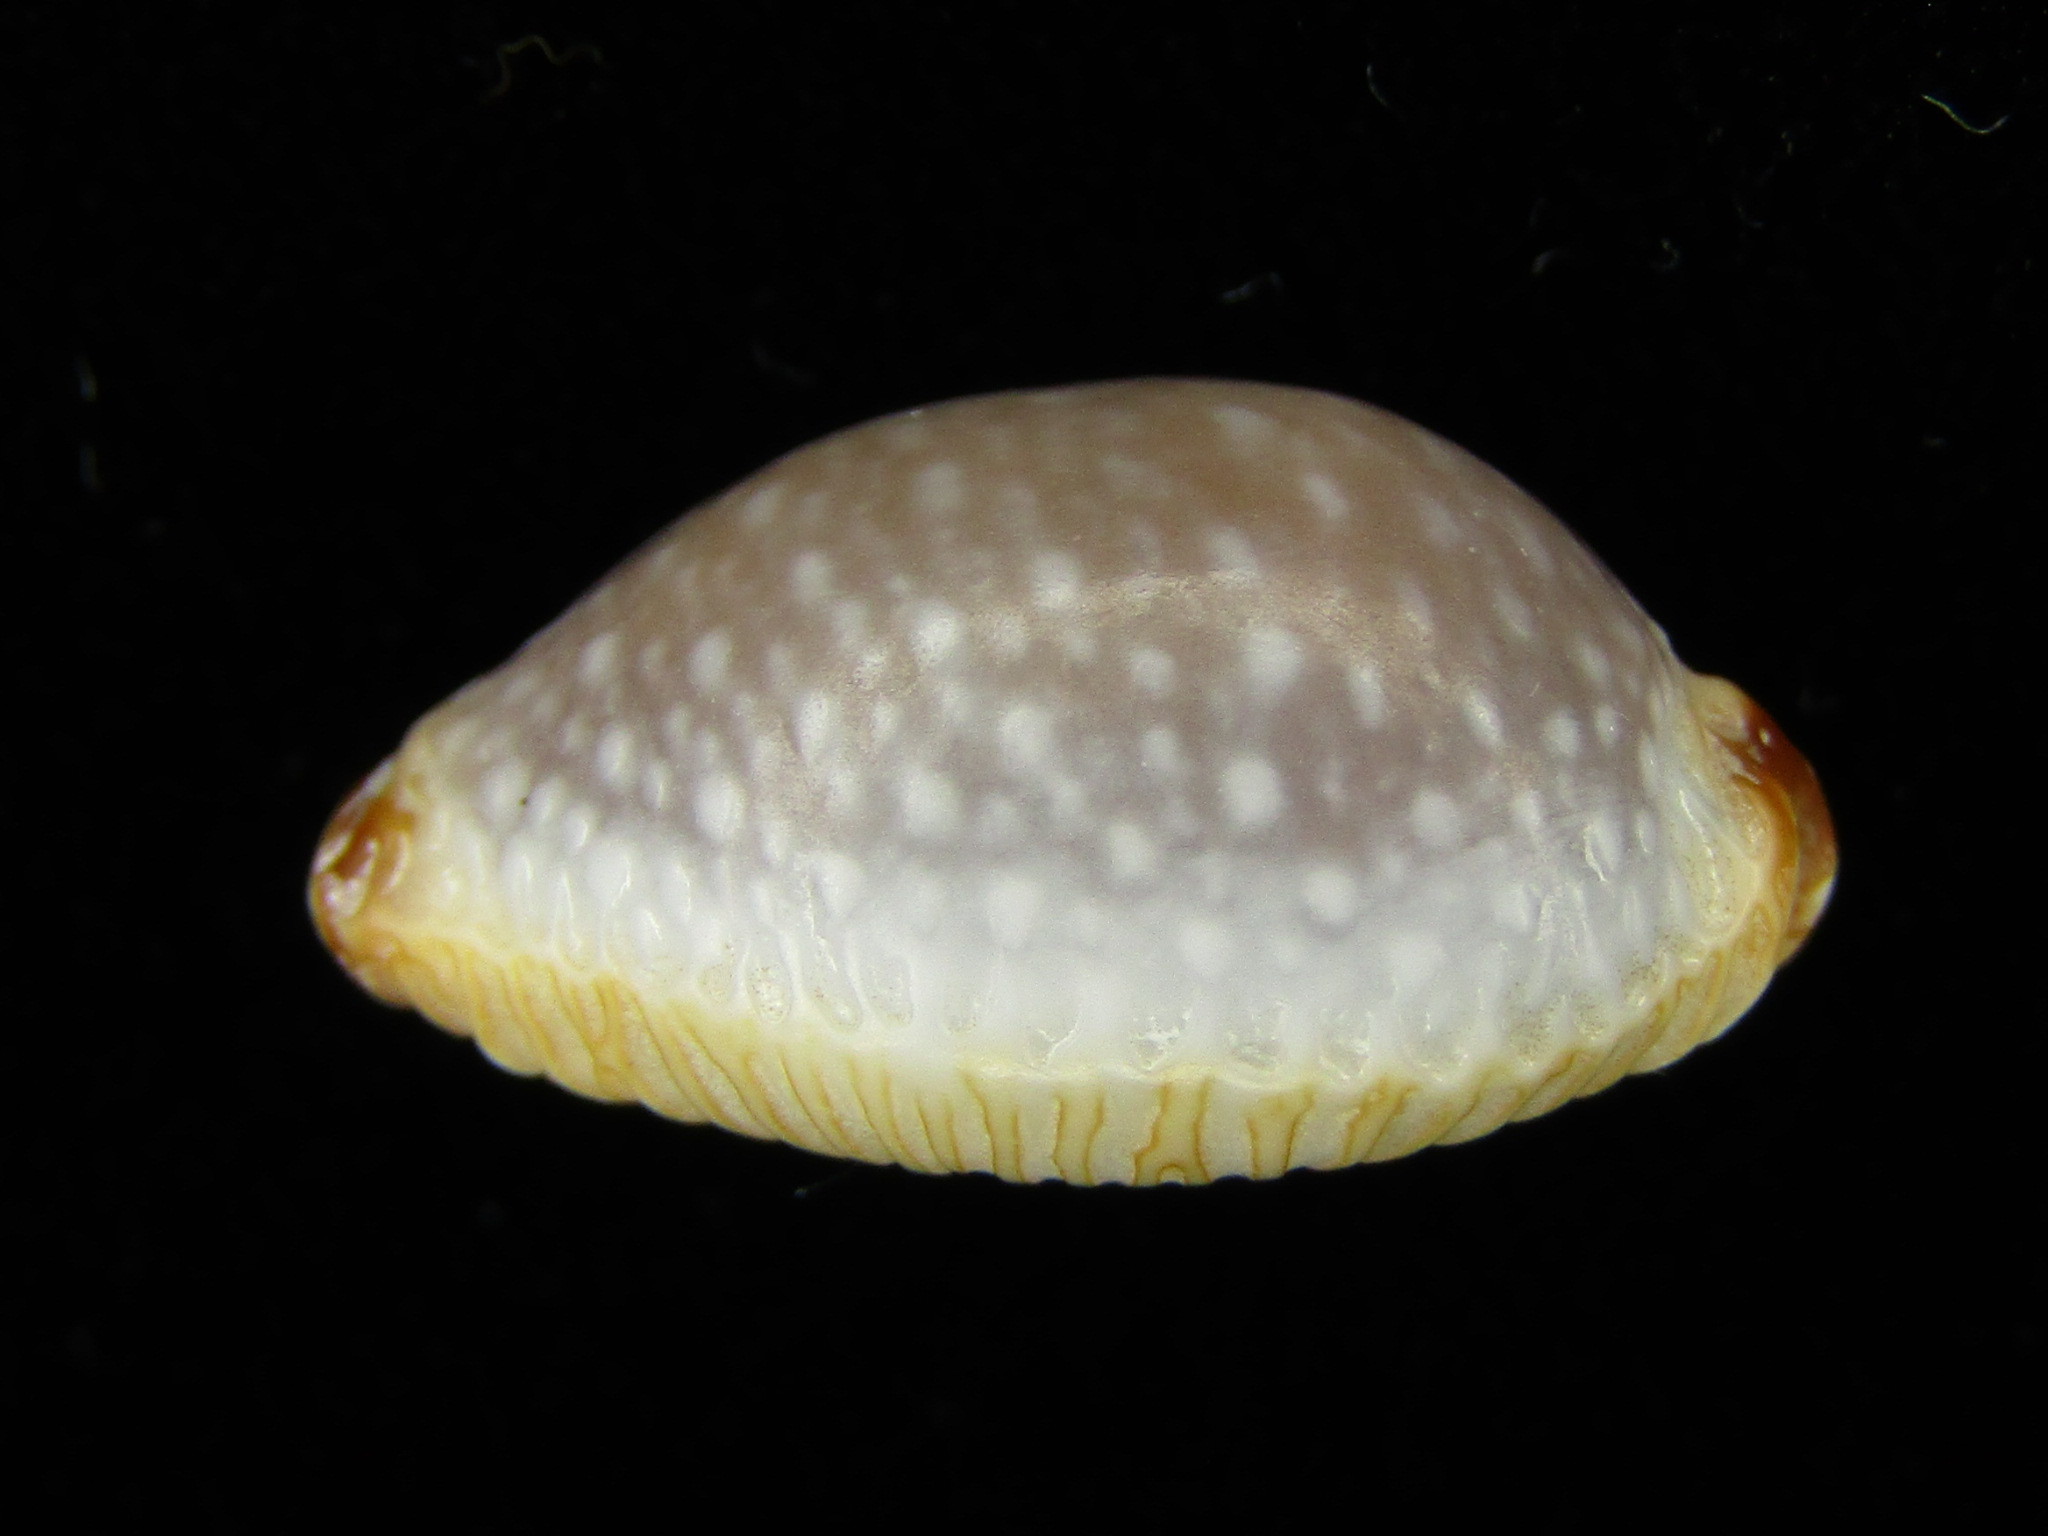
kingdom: Animalia
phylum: Mollusca
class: Gastropoda
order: Littorinimorpha
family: Cypraeidae
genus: Staphylaea
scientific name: Staphylaea staphylaea
